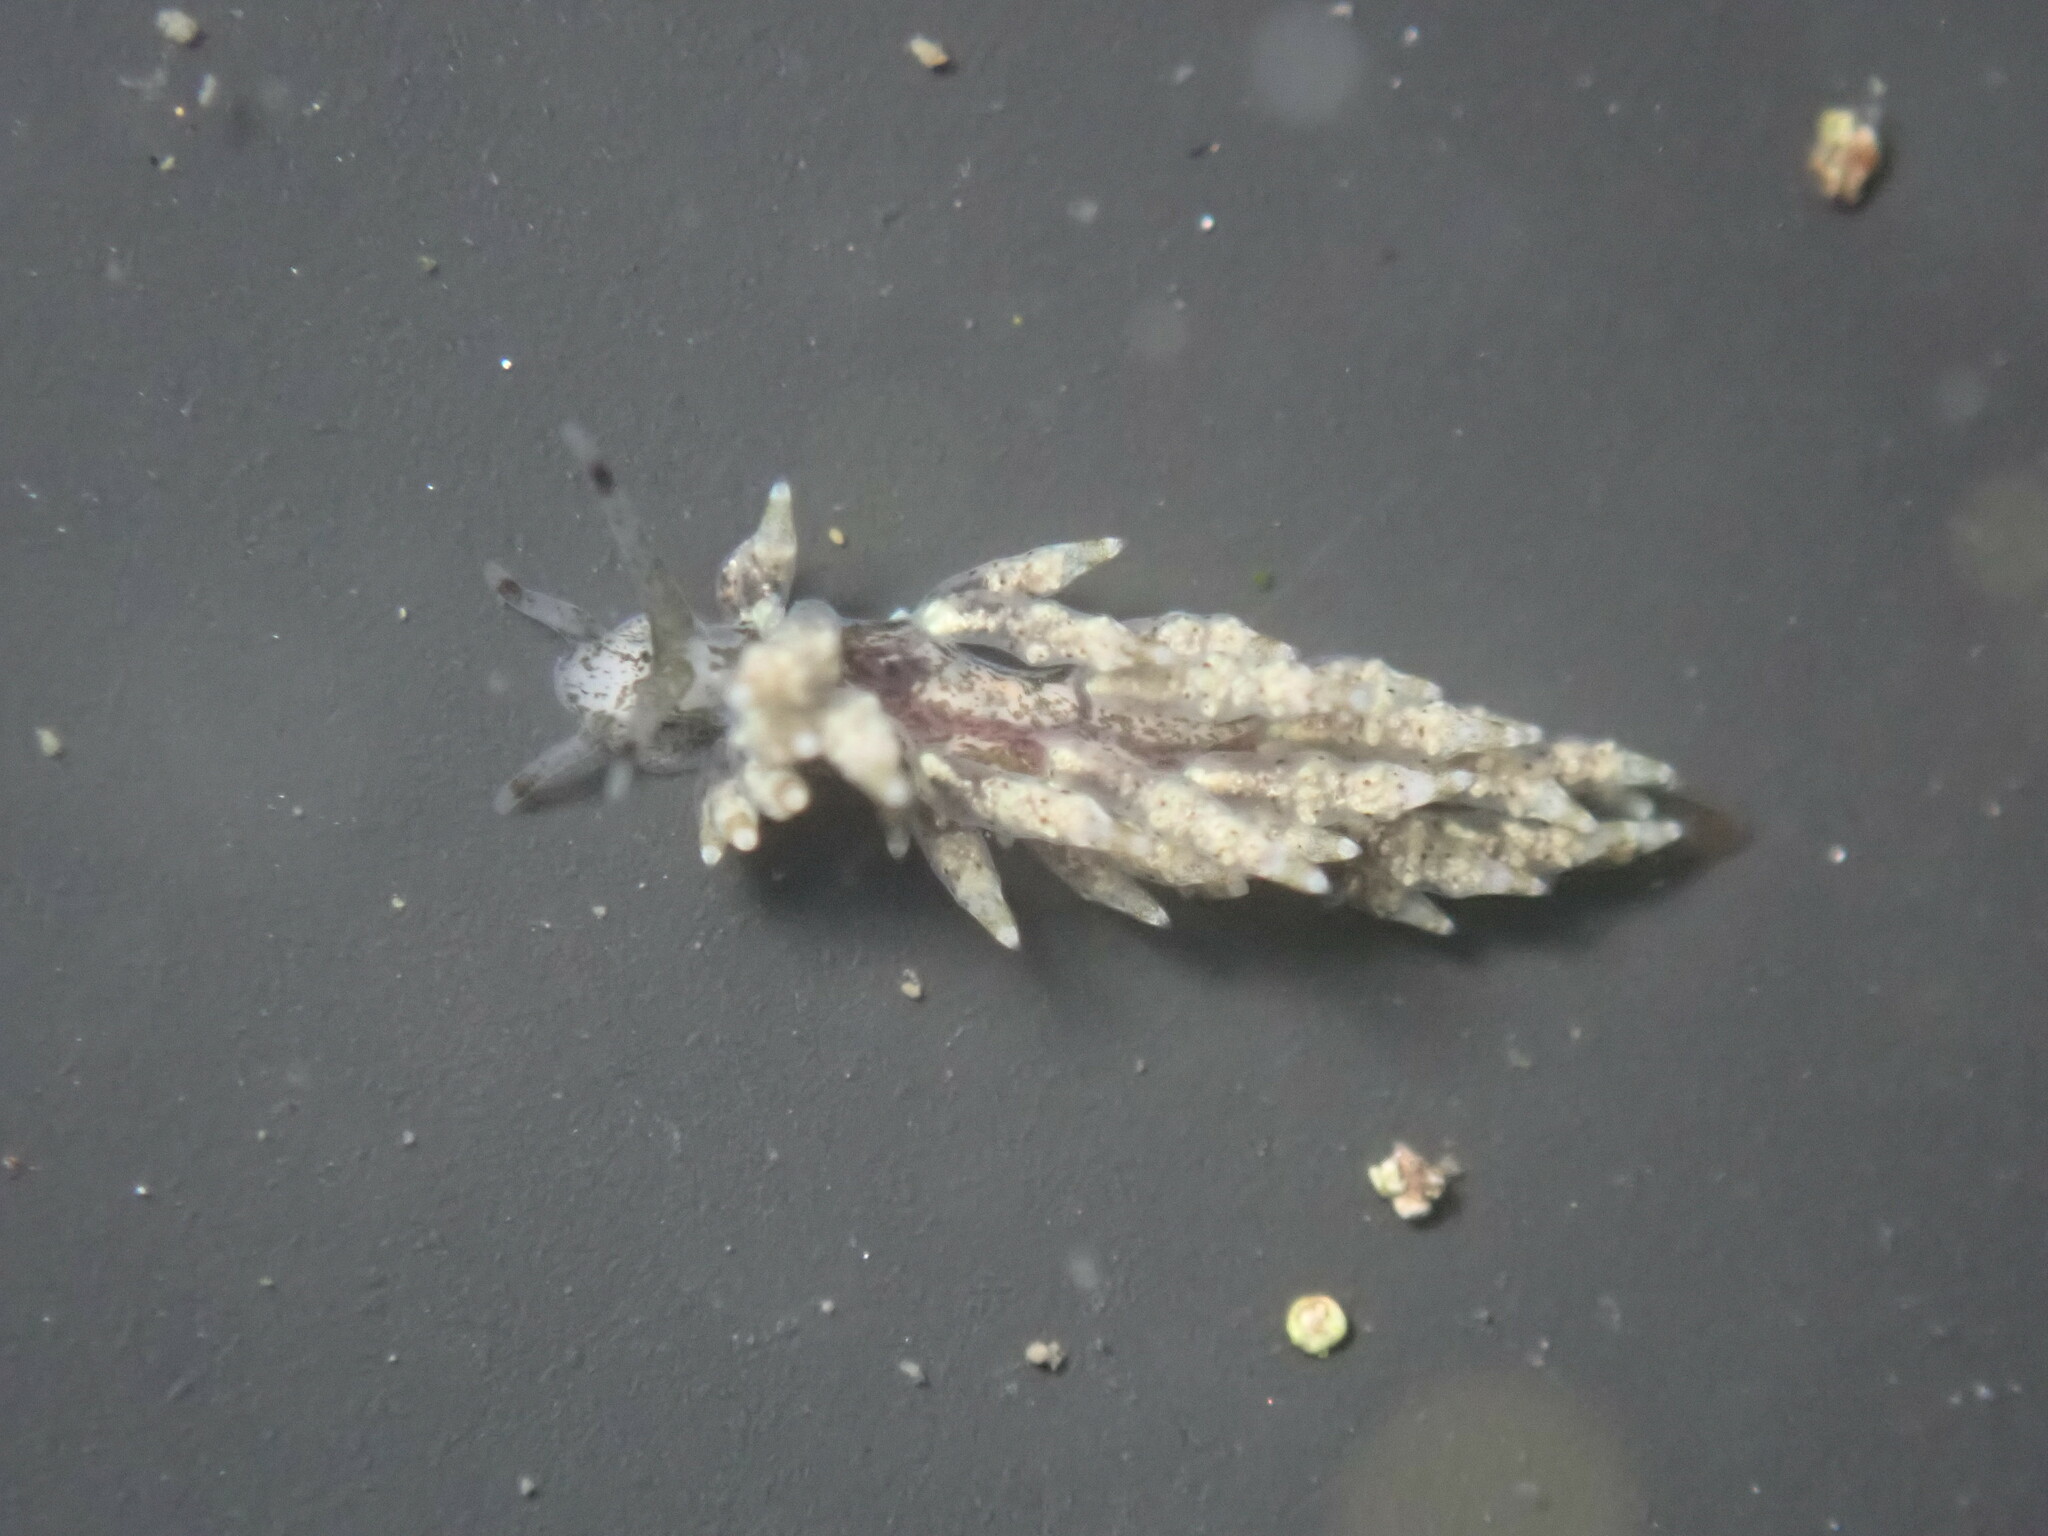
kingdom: Animalia
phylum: Mollusca
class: Gastropoda
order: Nudibranchia
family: Eubranchidae
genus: Eubranchus
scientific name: Eubranchus rustyus
